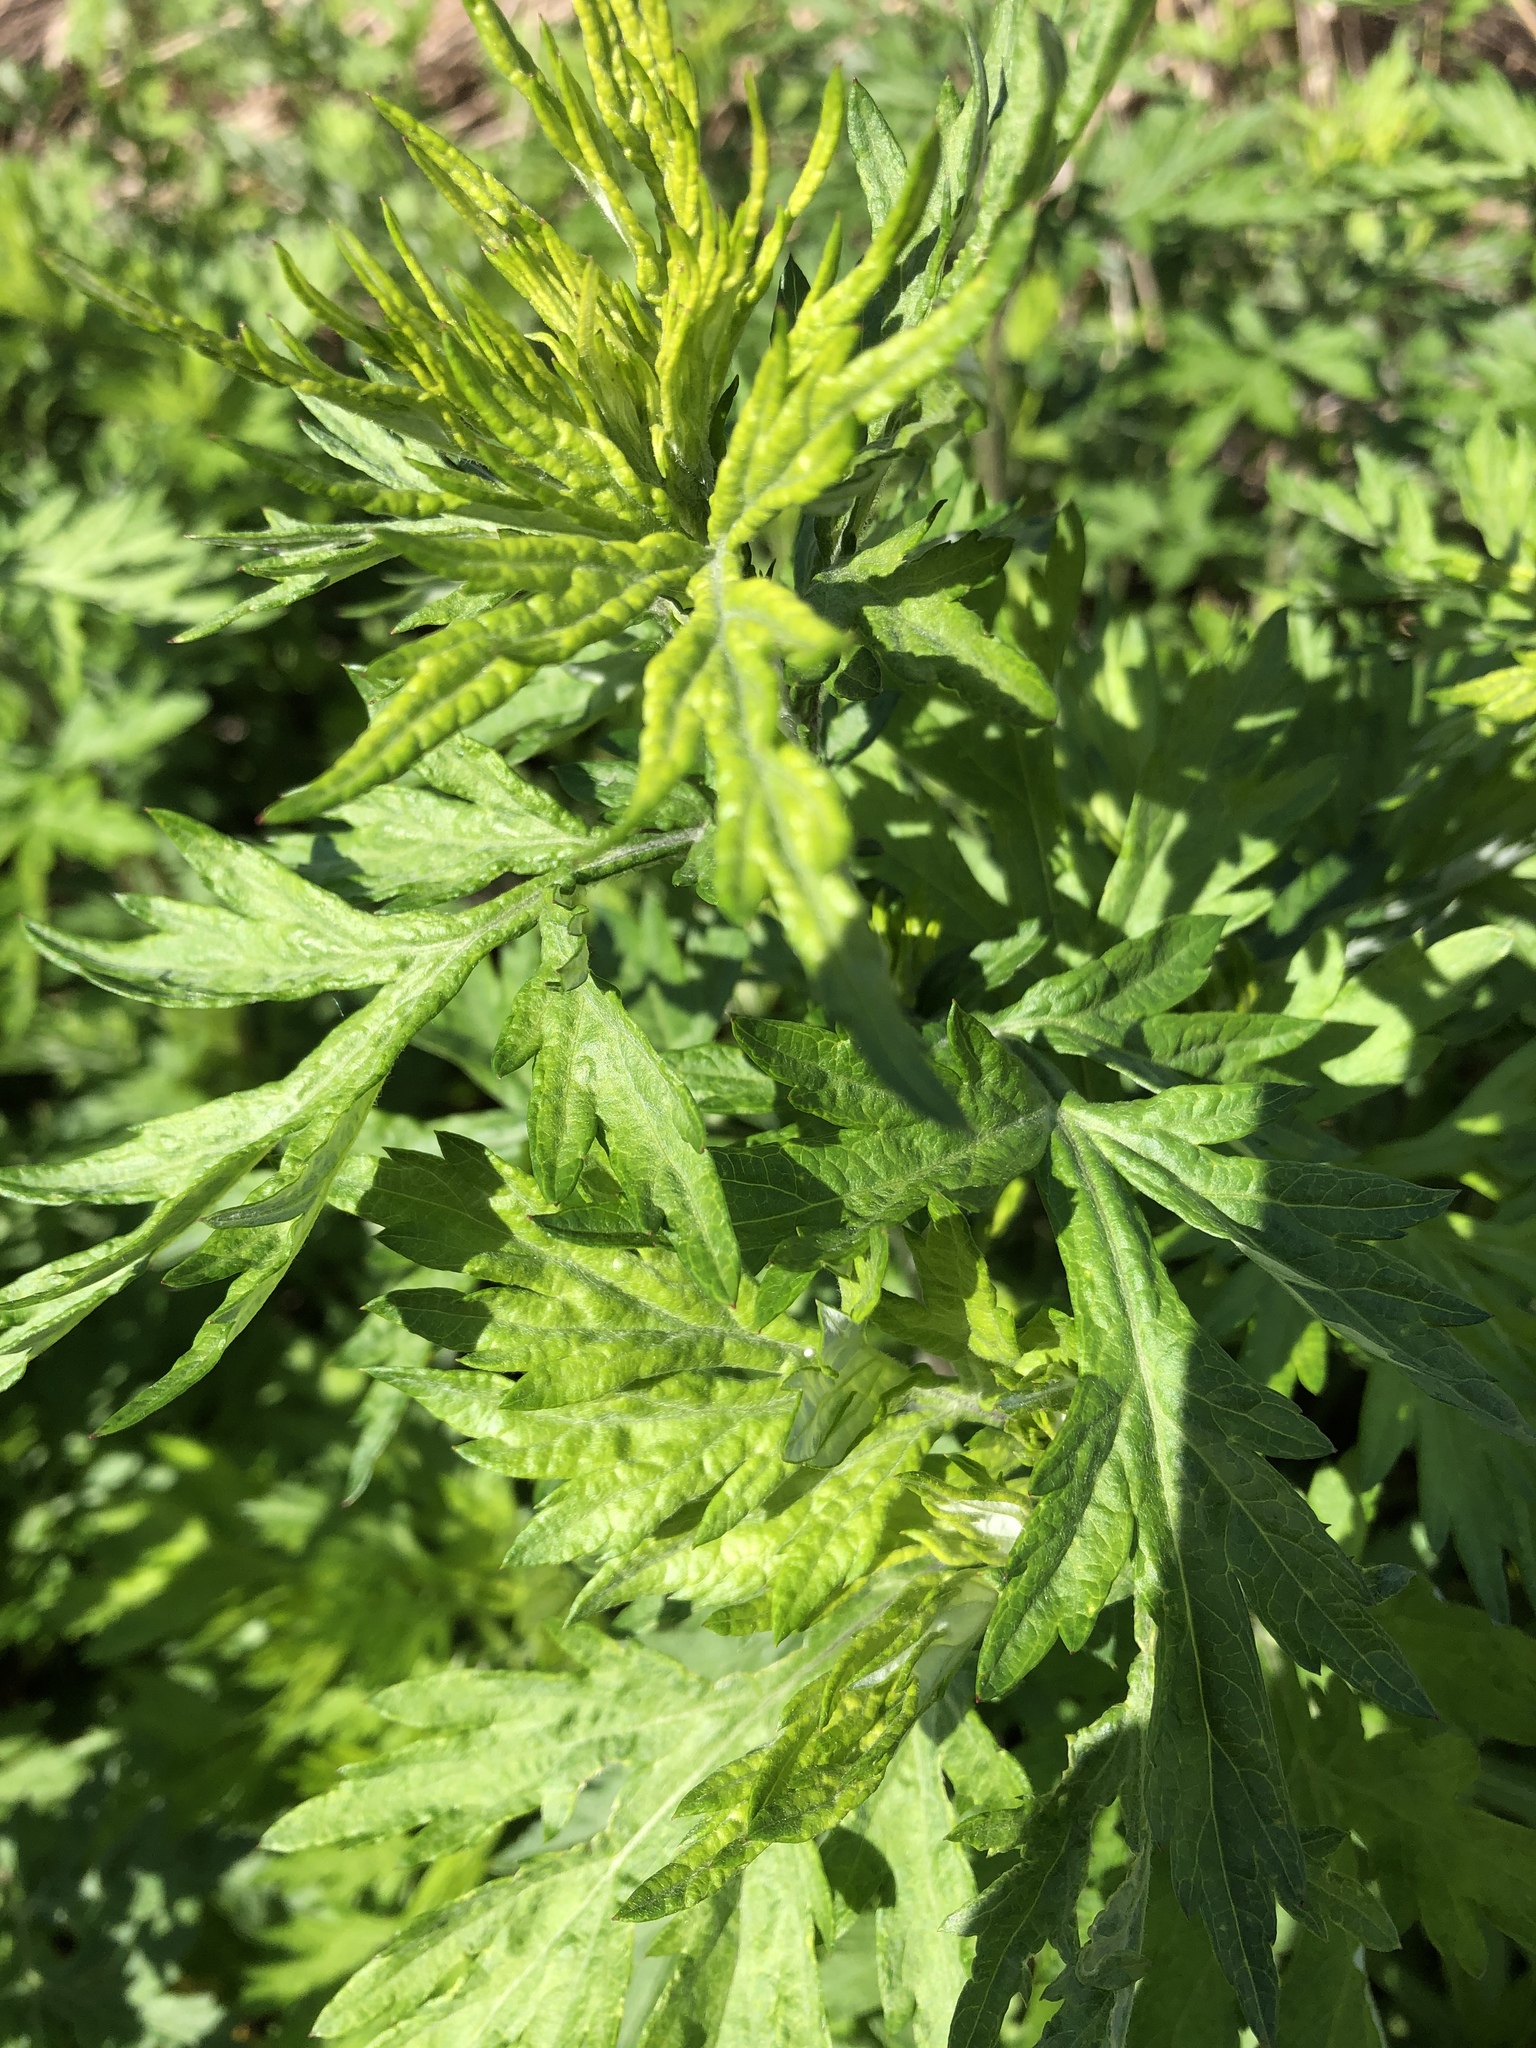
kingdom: Plantae
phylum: Tracheophyta
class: Magnoliopsida
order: Asterales
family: Asteraceae
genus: Artemisia
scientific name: Artemisia vulgaris
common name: Mugwort
